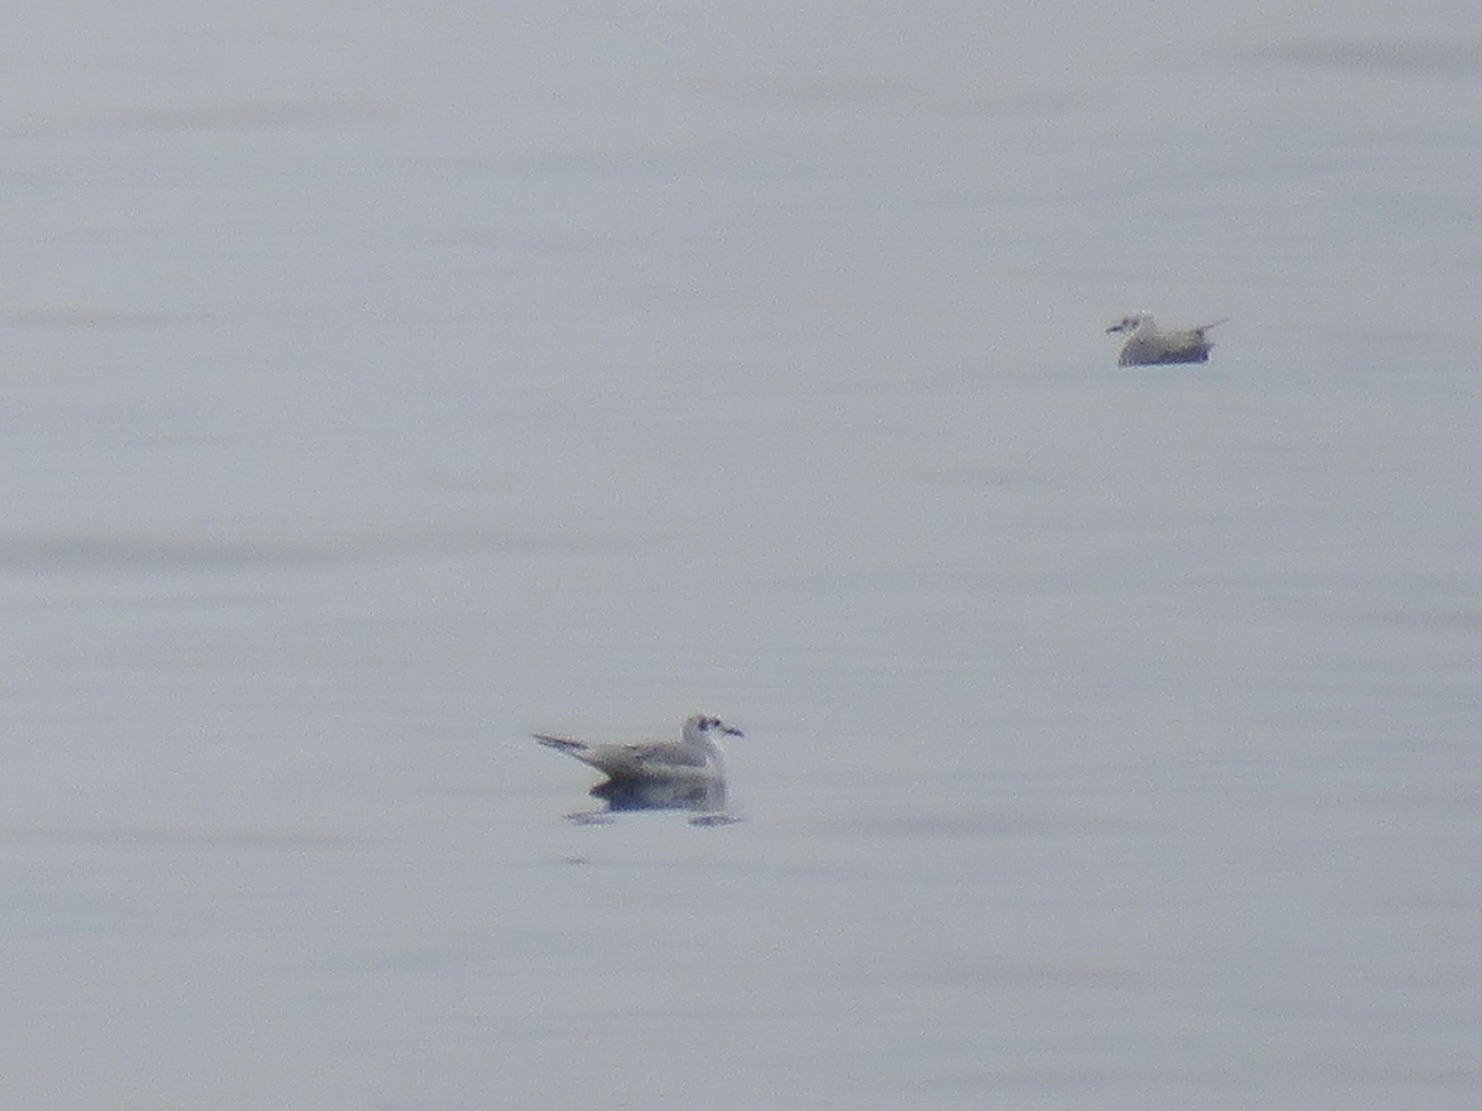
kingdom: Animalia
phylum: Chordata
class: Aves
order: Charadriiformes
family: Laridae
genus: Chroicocephalus
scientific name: Chroicocephalus philadelphia
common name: Bonaparte's gull
